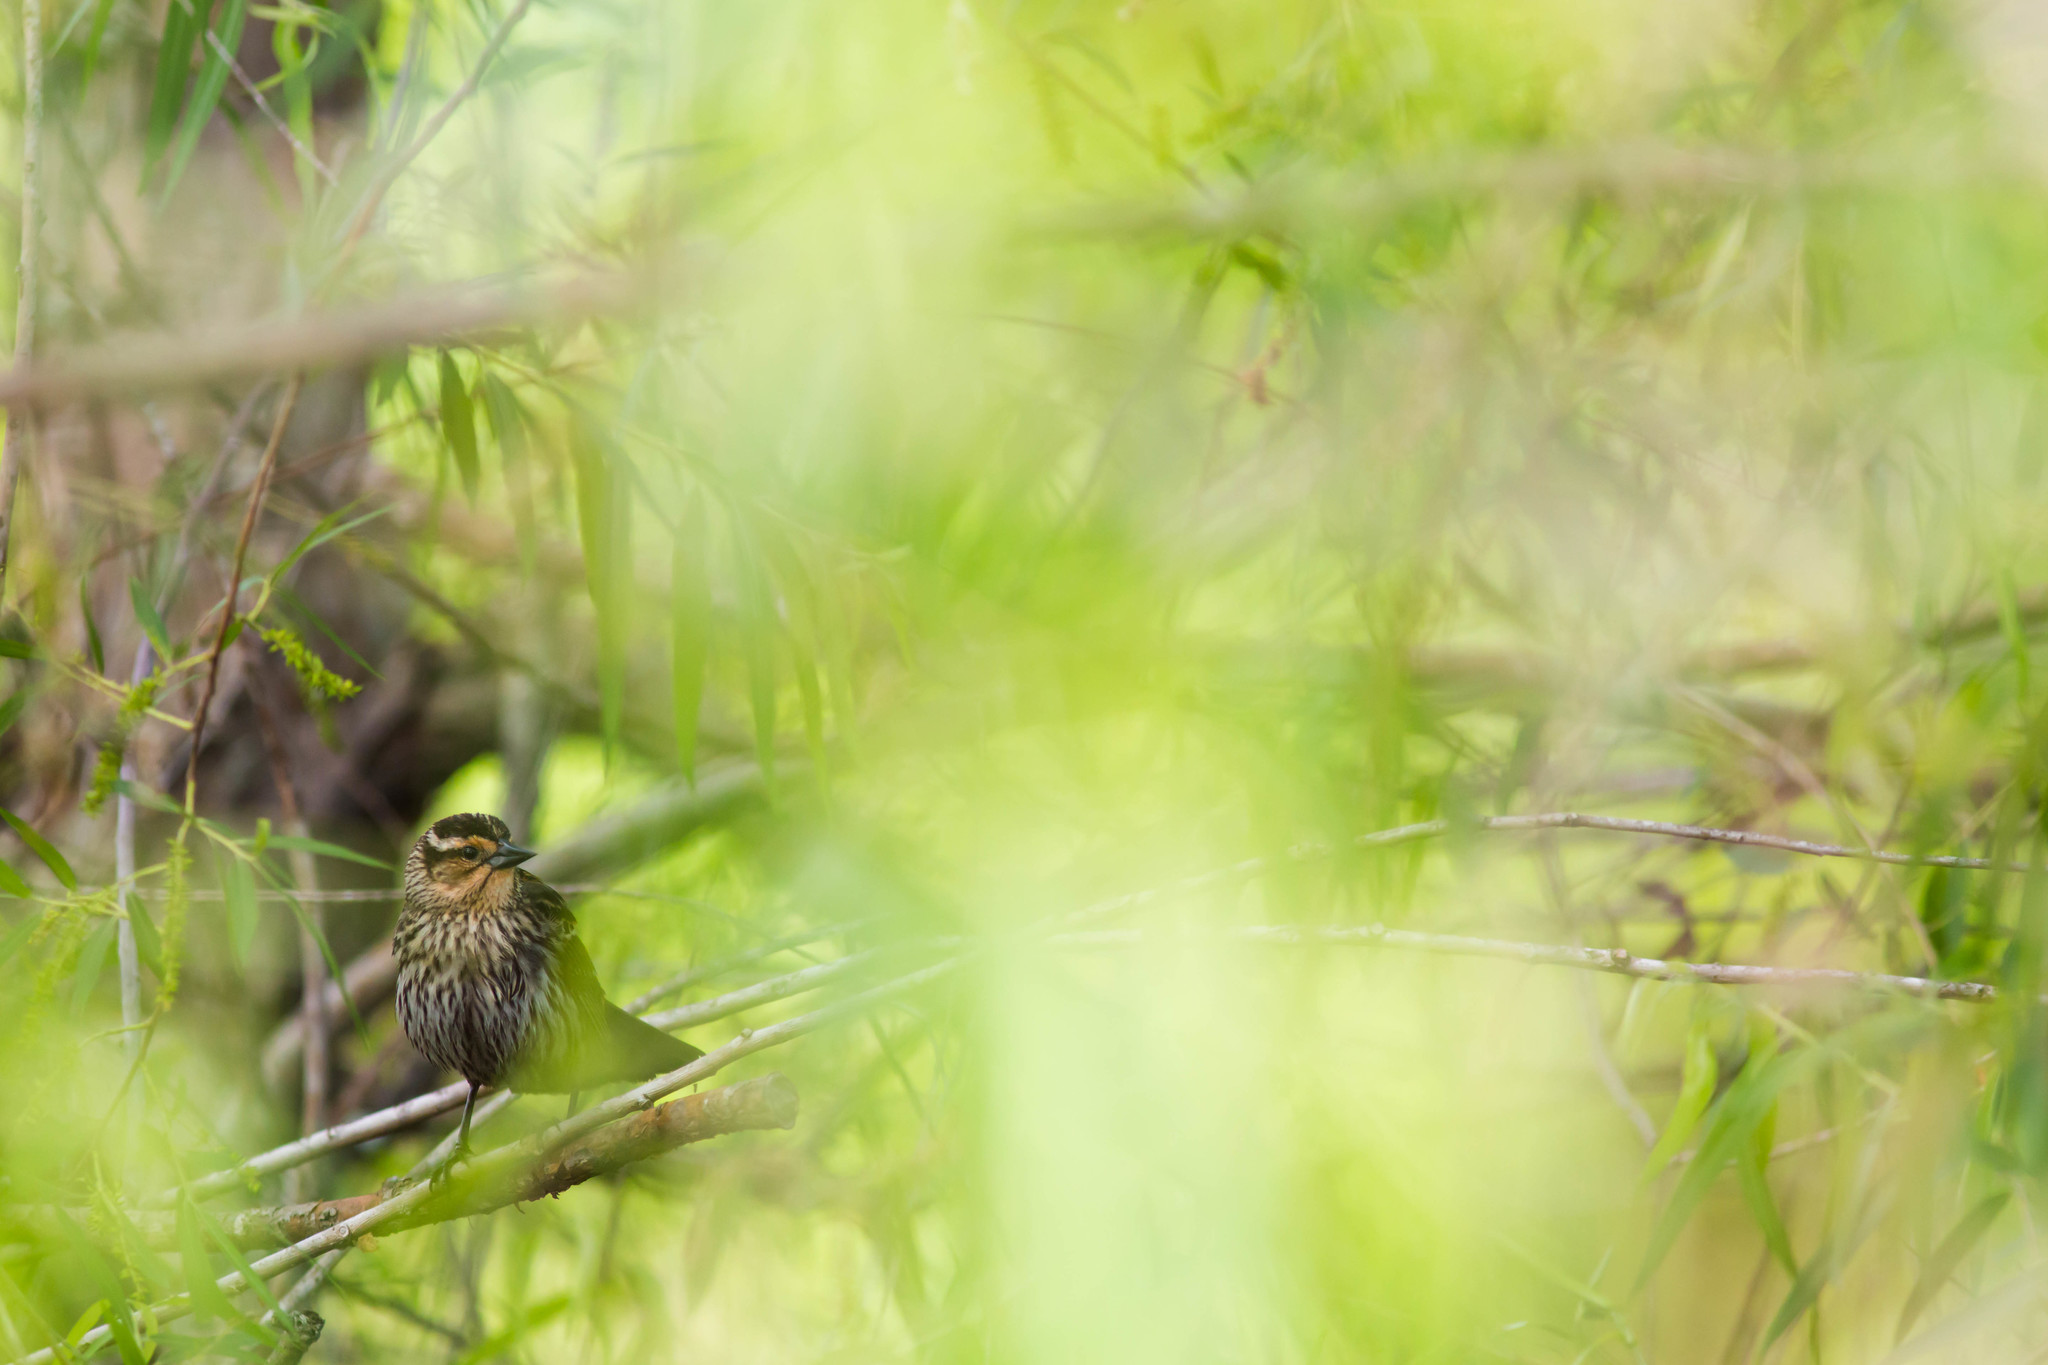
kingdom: Animalia
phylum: Chordata
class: Aves
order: Passeriformes
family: Icteridae
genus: Agelaius
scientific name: Agelaius phoeniceus
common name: Red-winged blackbird
